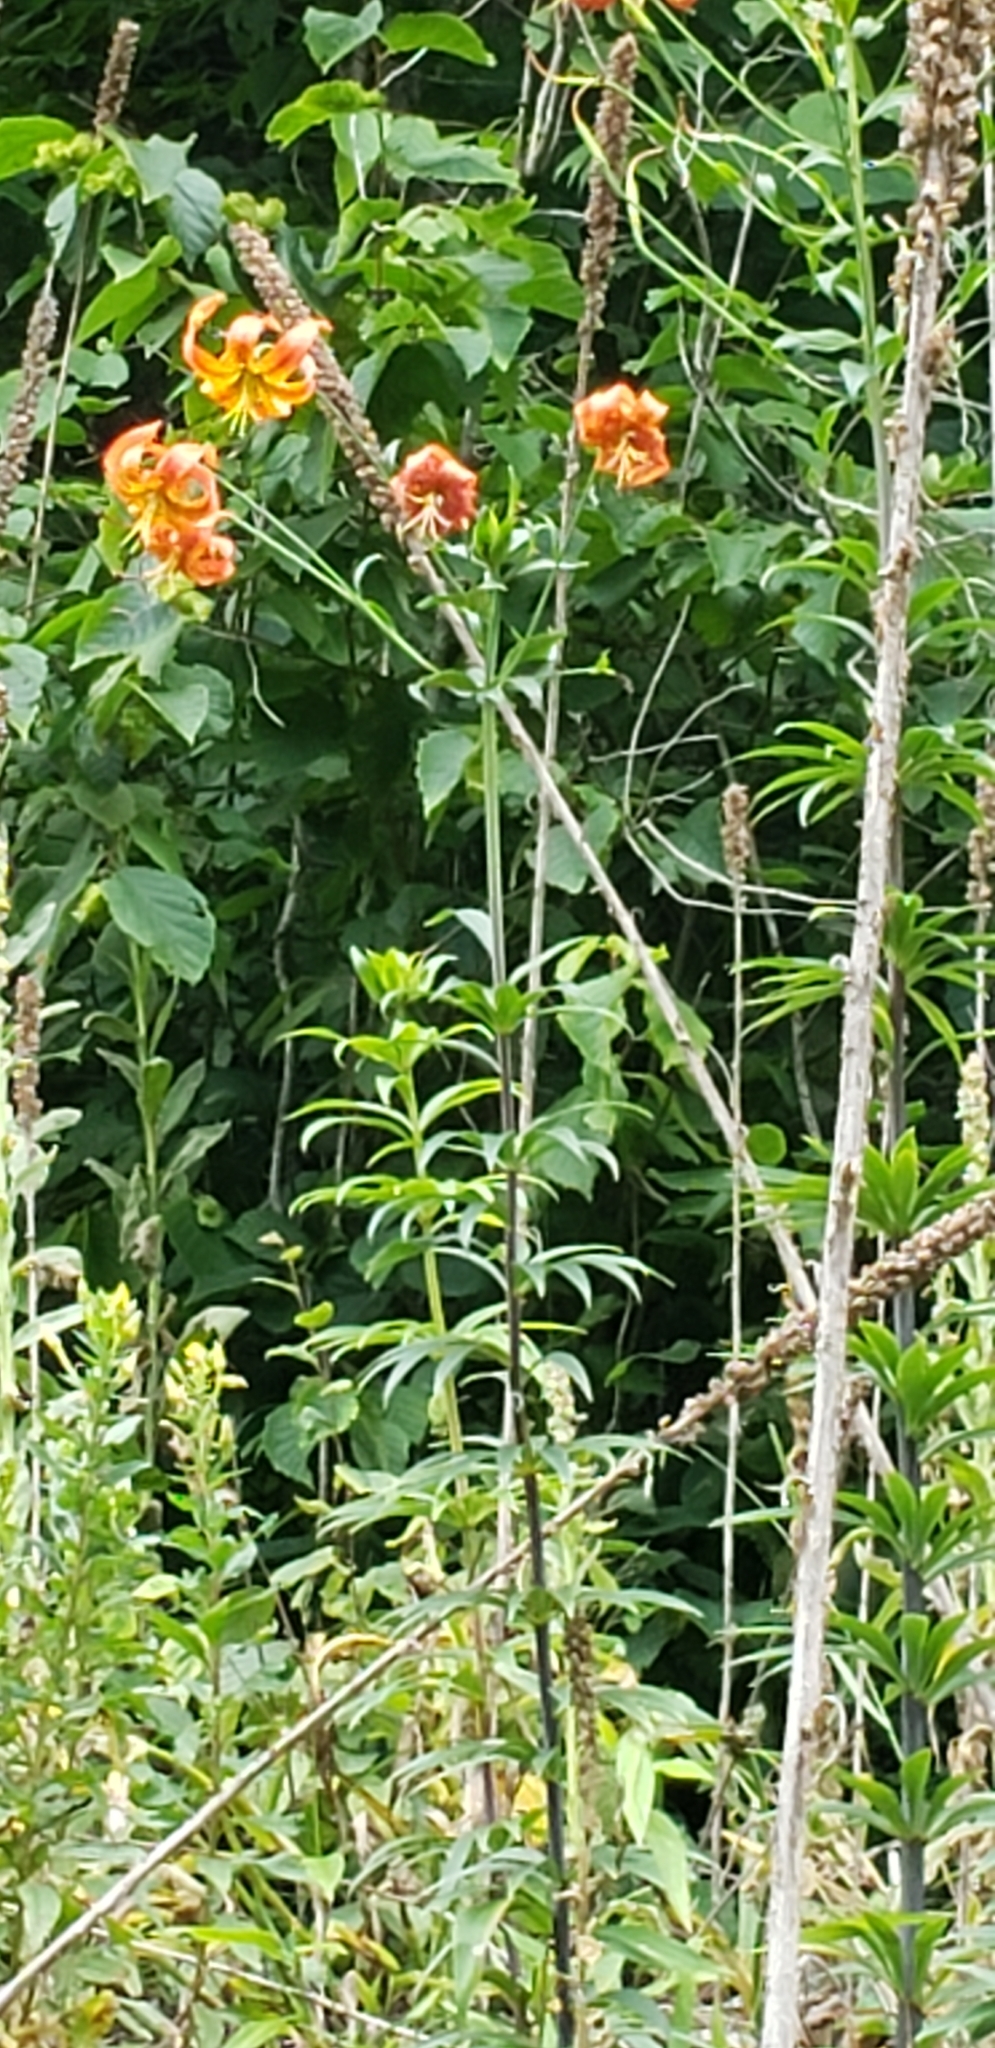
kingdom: Plantae
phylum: Tracheophyta
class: Liliopsida
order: Liliales
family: Liliaceae
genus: Lilium
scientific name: Lilium superbum
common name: American turk's-cap lily
